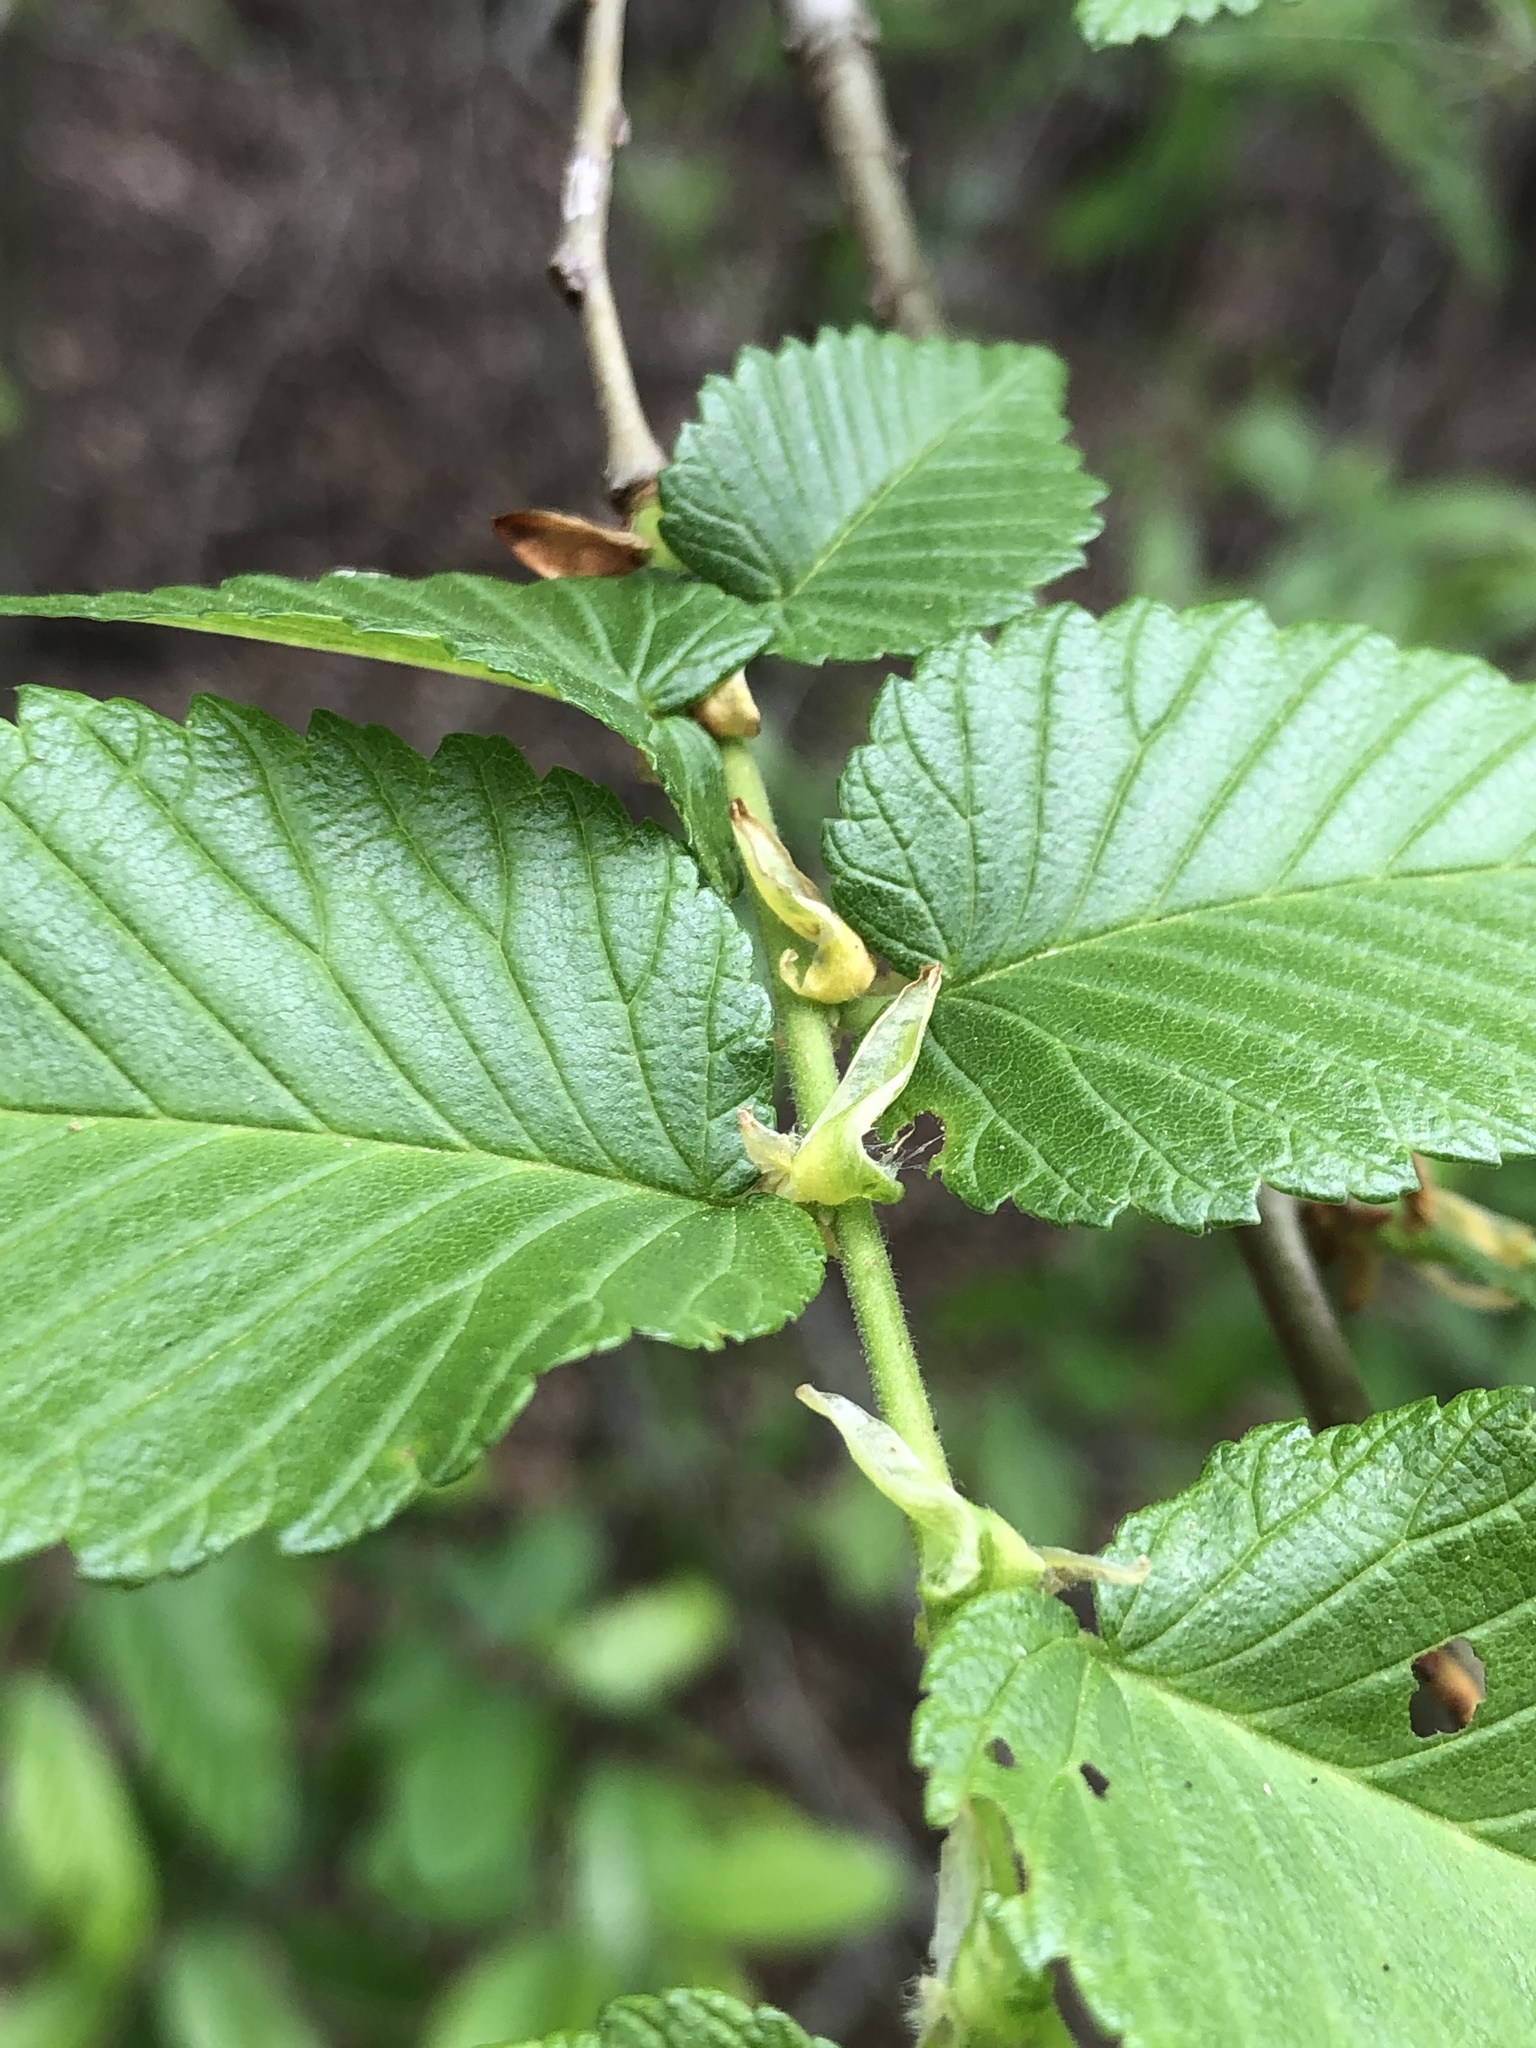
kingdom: Plantae
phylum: Tracheophyta
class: Magnoliopsida
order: Rosales
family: Ulmaceae
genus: Ulmus
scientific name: Ulmus americana
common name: American elm
